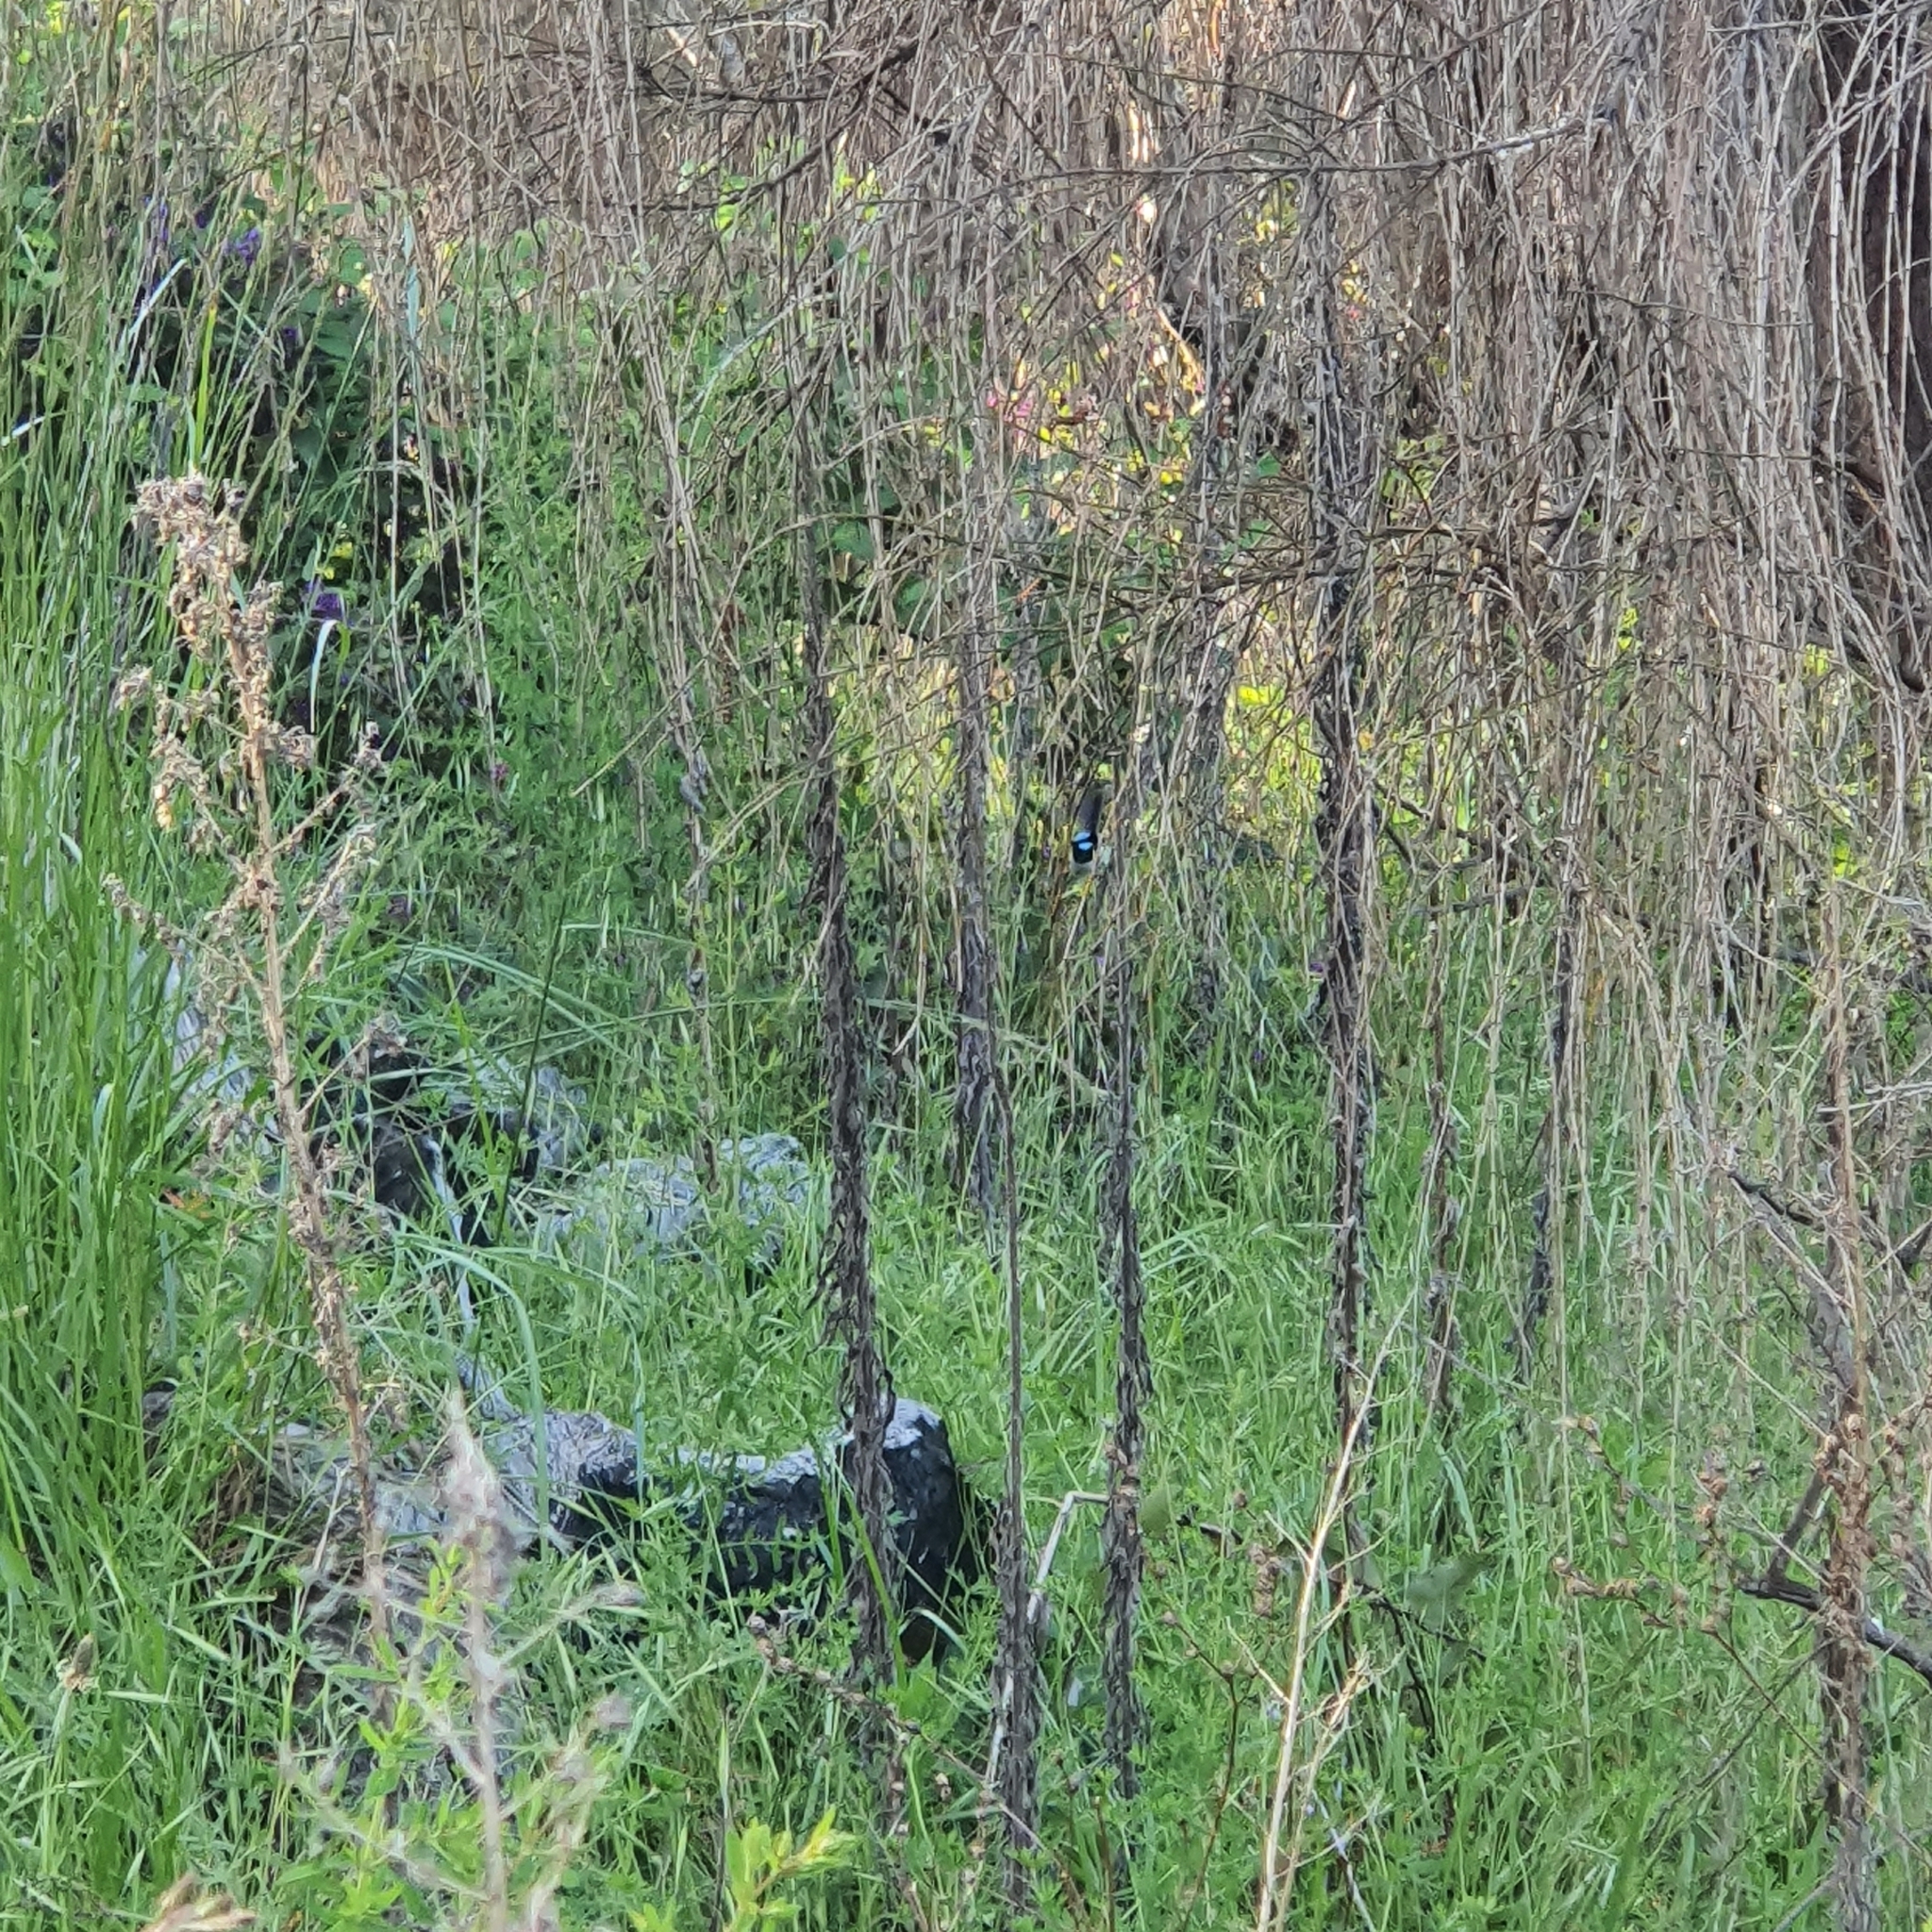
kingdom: Animalia
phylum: Chordata
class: Aves
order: Passeriformes
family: Maluridae
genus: Malurus
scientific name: Malurus cyaneus
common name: Superb fairywren
